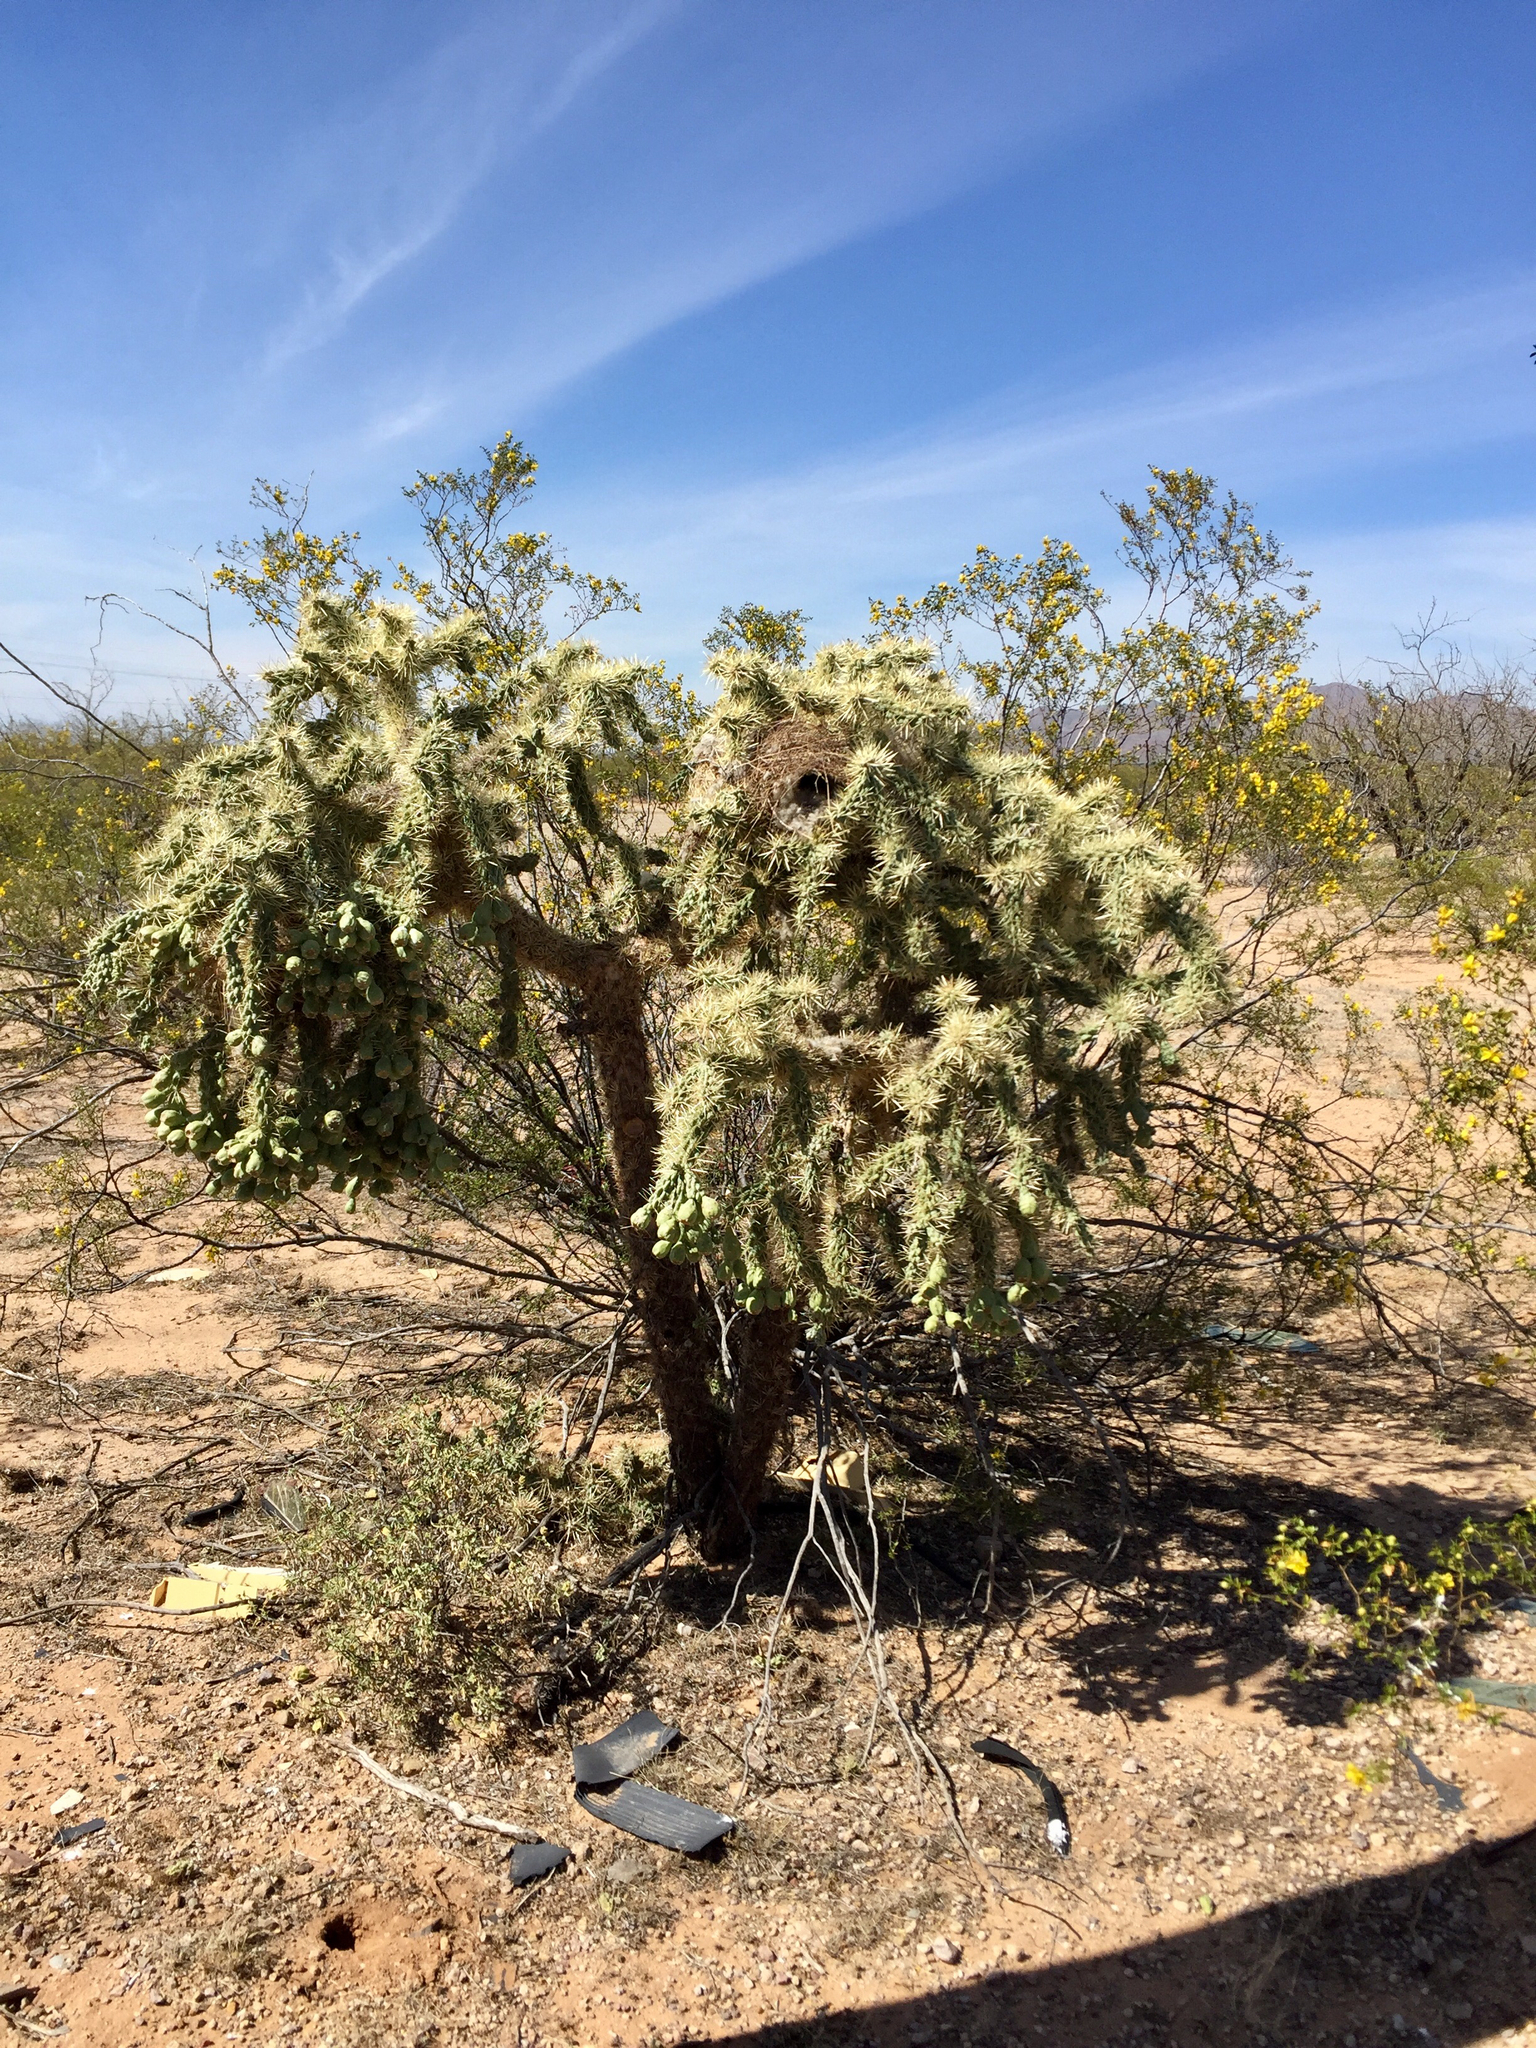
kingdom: Plantae
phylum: Tracheophyta
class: Magnoliopsida
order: Caryophyllales
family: Cactaceae
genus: Cylindropuntia
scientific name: Cylindropuntia fulgida
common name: Jumping cholla
